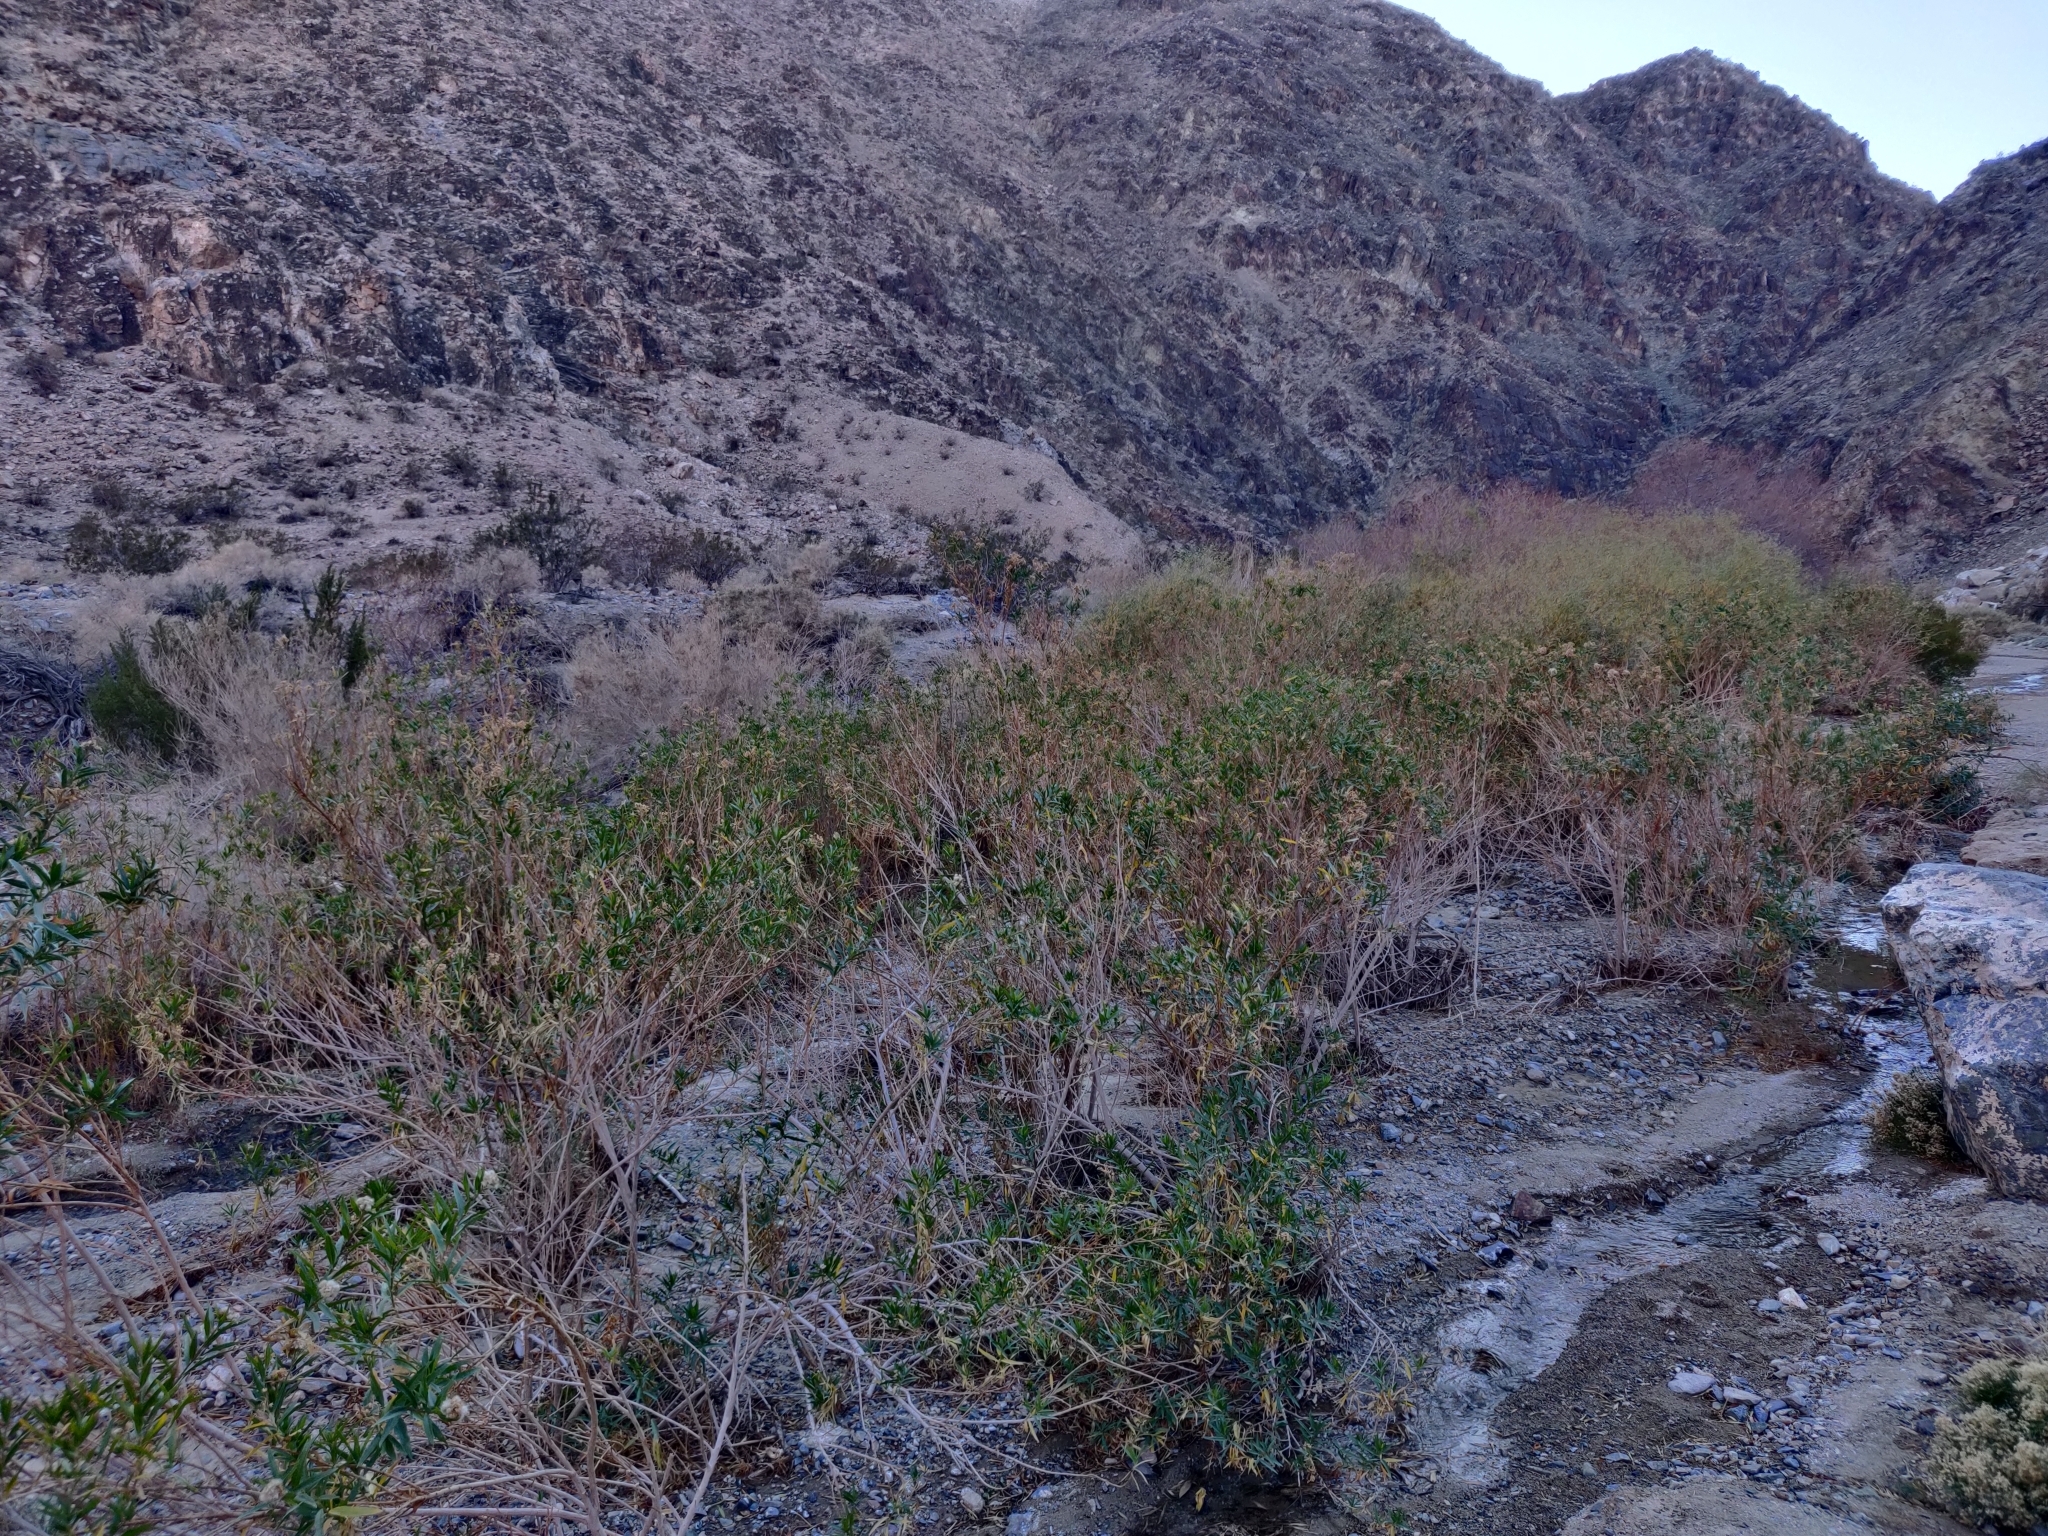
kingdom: Plantae
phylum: Tracheophyta
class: Magnoliopsida
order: Asterales
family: Asteraceae
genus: Baccharis
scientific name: Baccharis salicifolia
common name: Sticky baccharis
